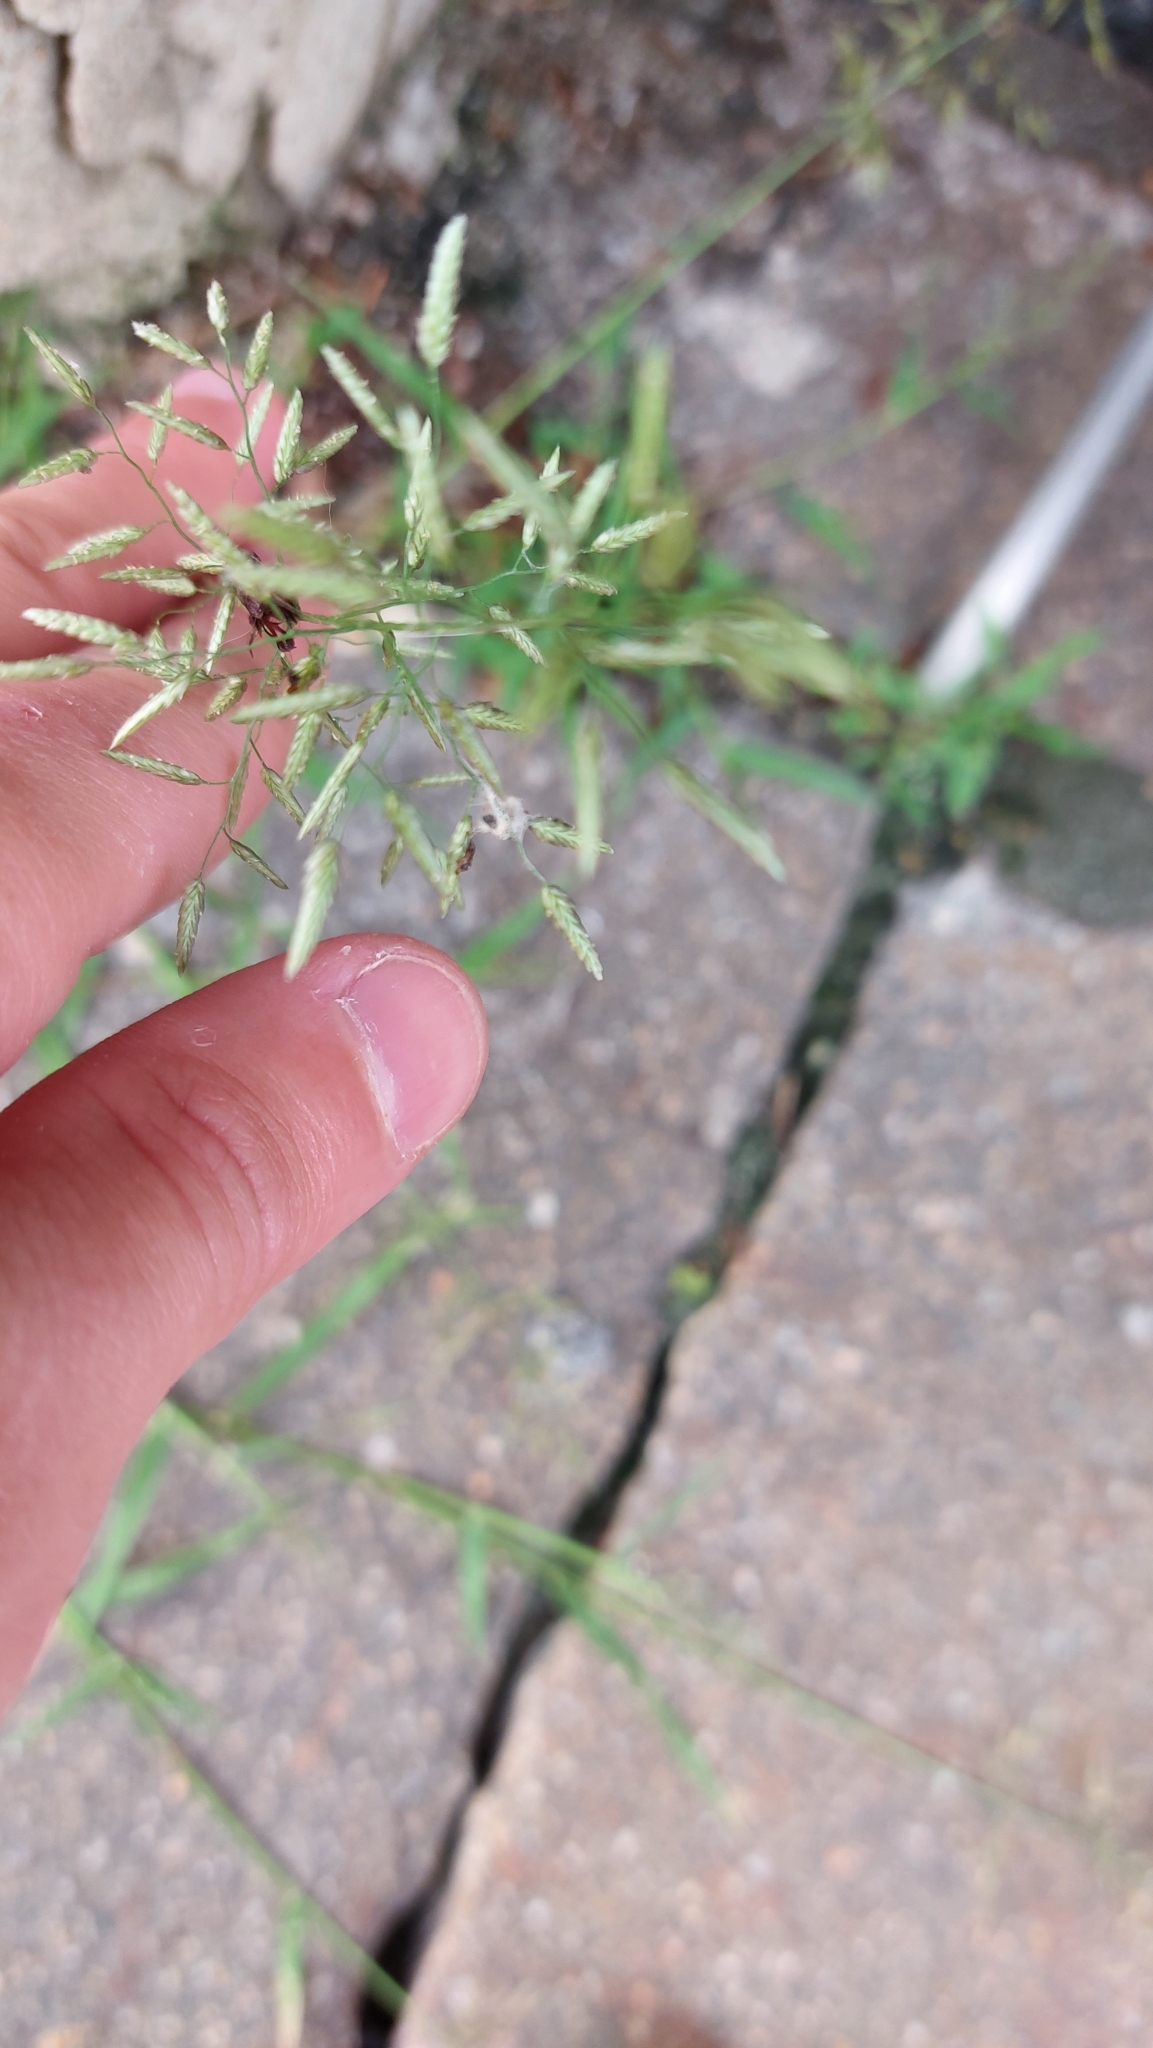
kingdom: Plantae
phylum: Tracheophyta
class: Liliopsida
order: Poales
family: Poaceae
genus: Eragrostis
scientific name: Eragrostis minor
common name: Small love-grass
